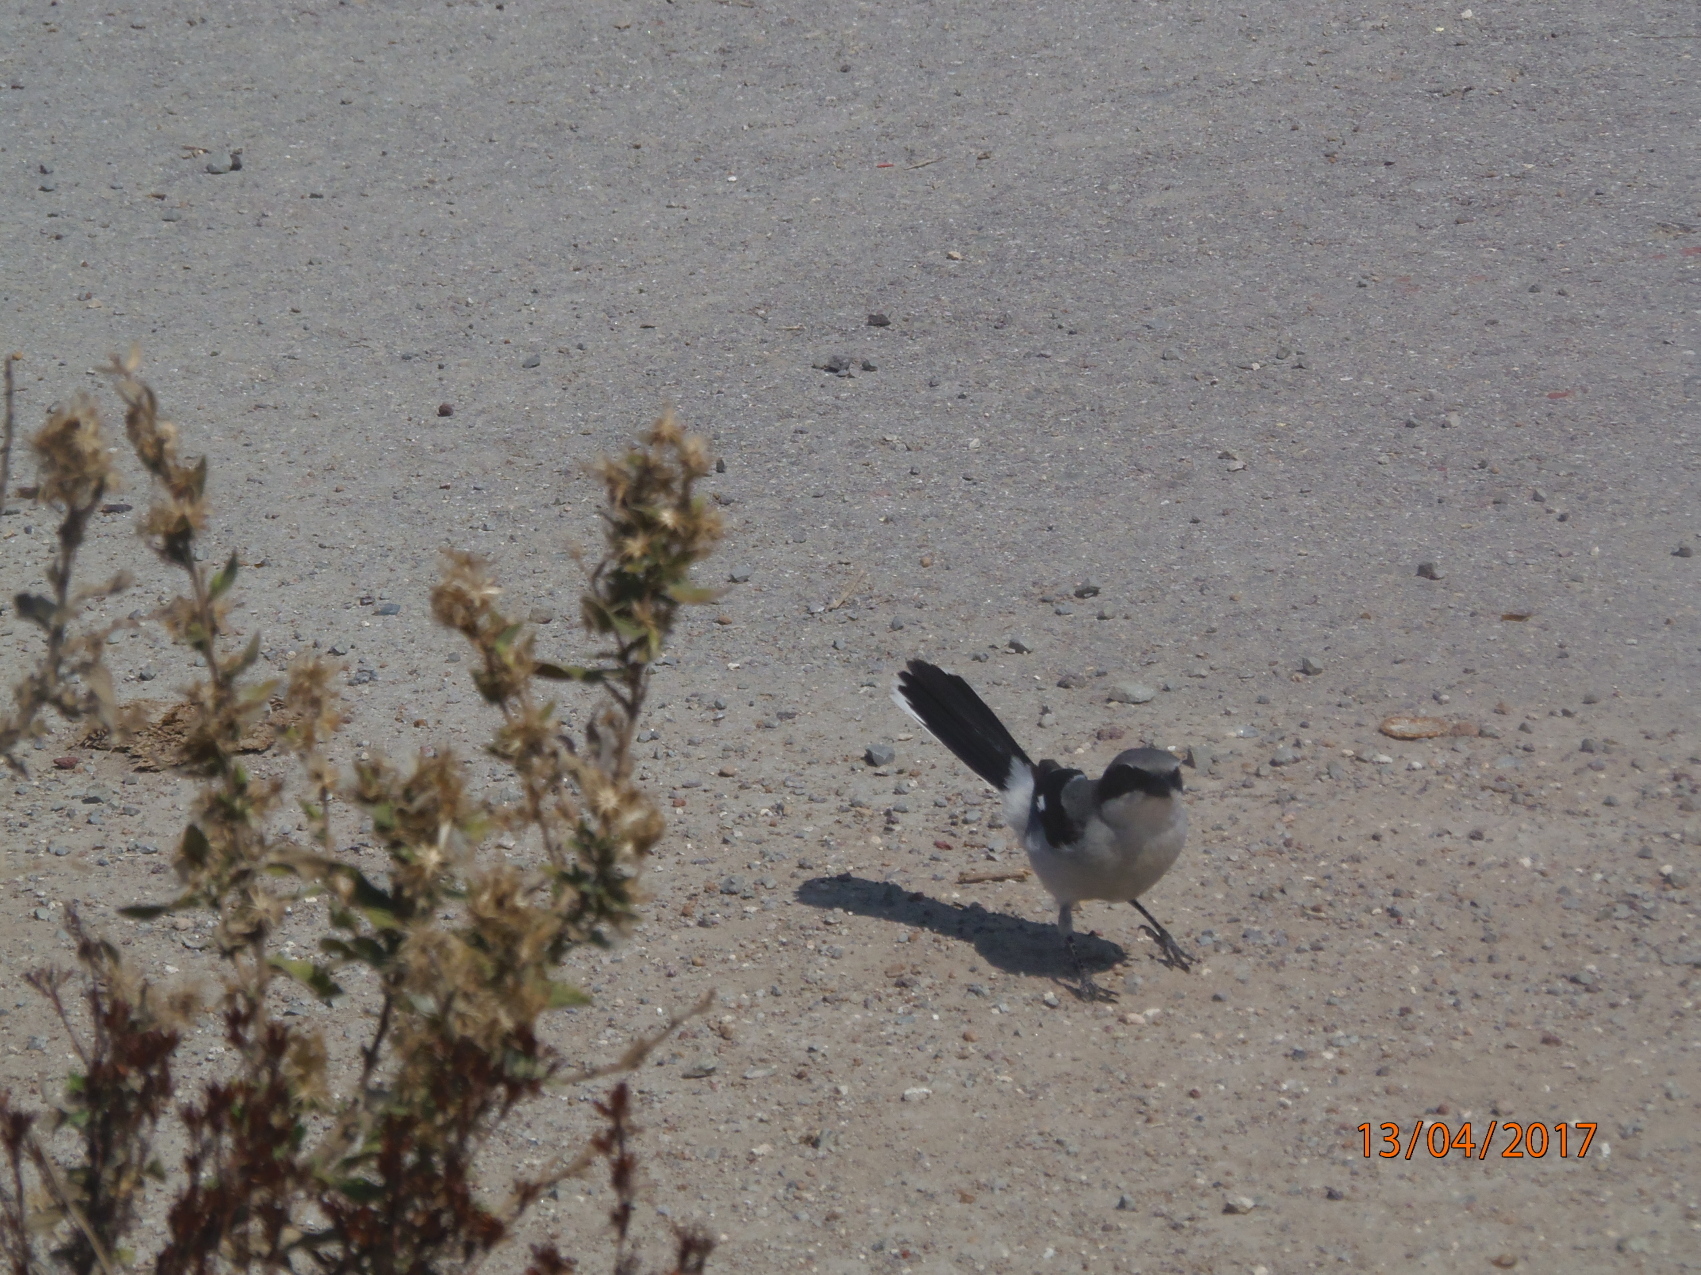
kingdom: Animalia
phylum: Chordata
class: Aves
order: Passeriformes
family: Laniidae
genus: Lanius
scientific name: Lanius ludovicianus
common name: Loggerhead shrike
